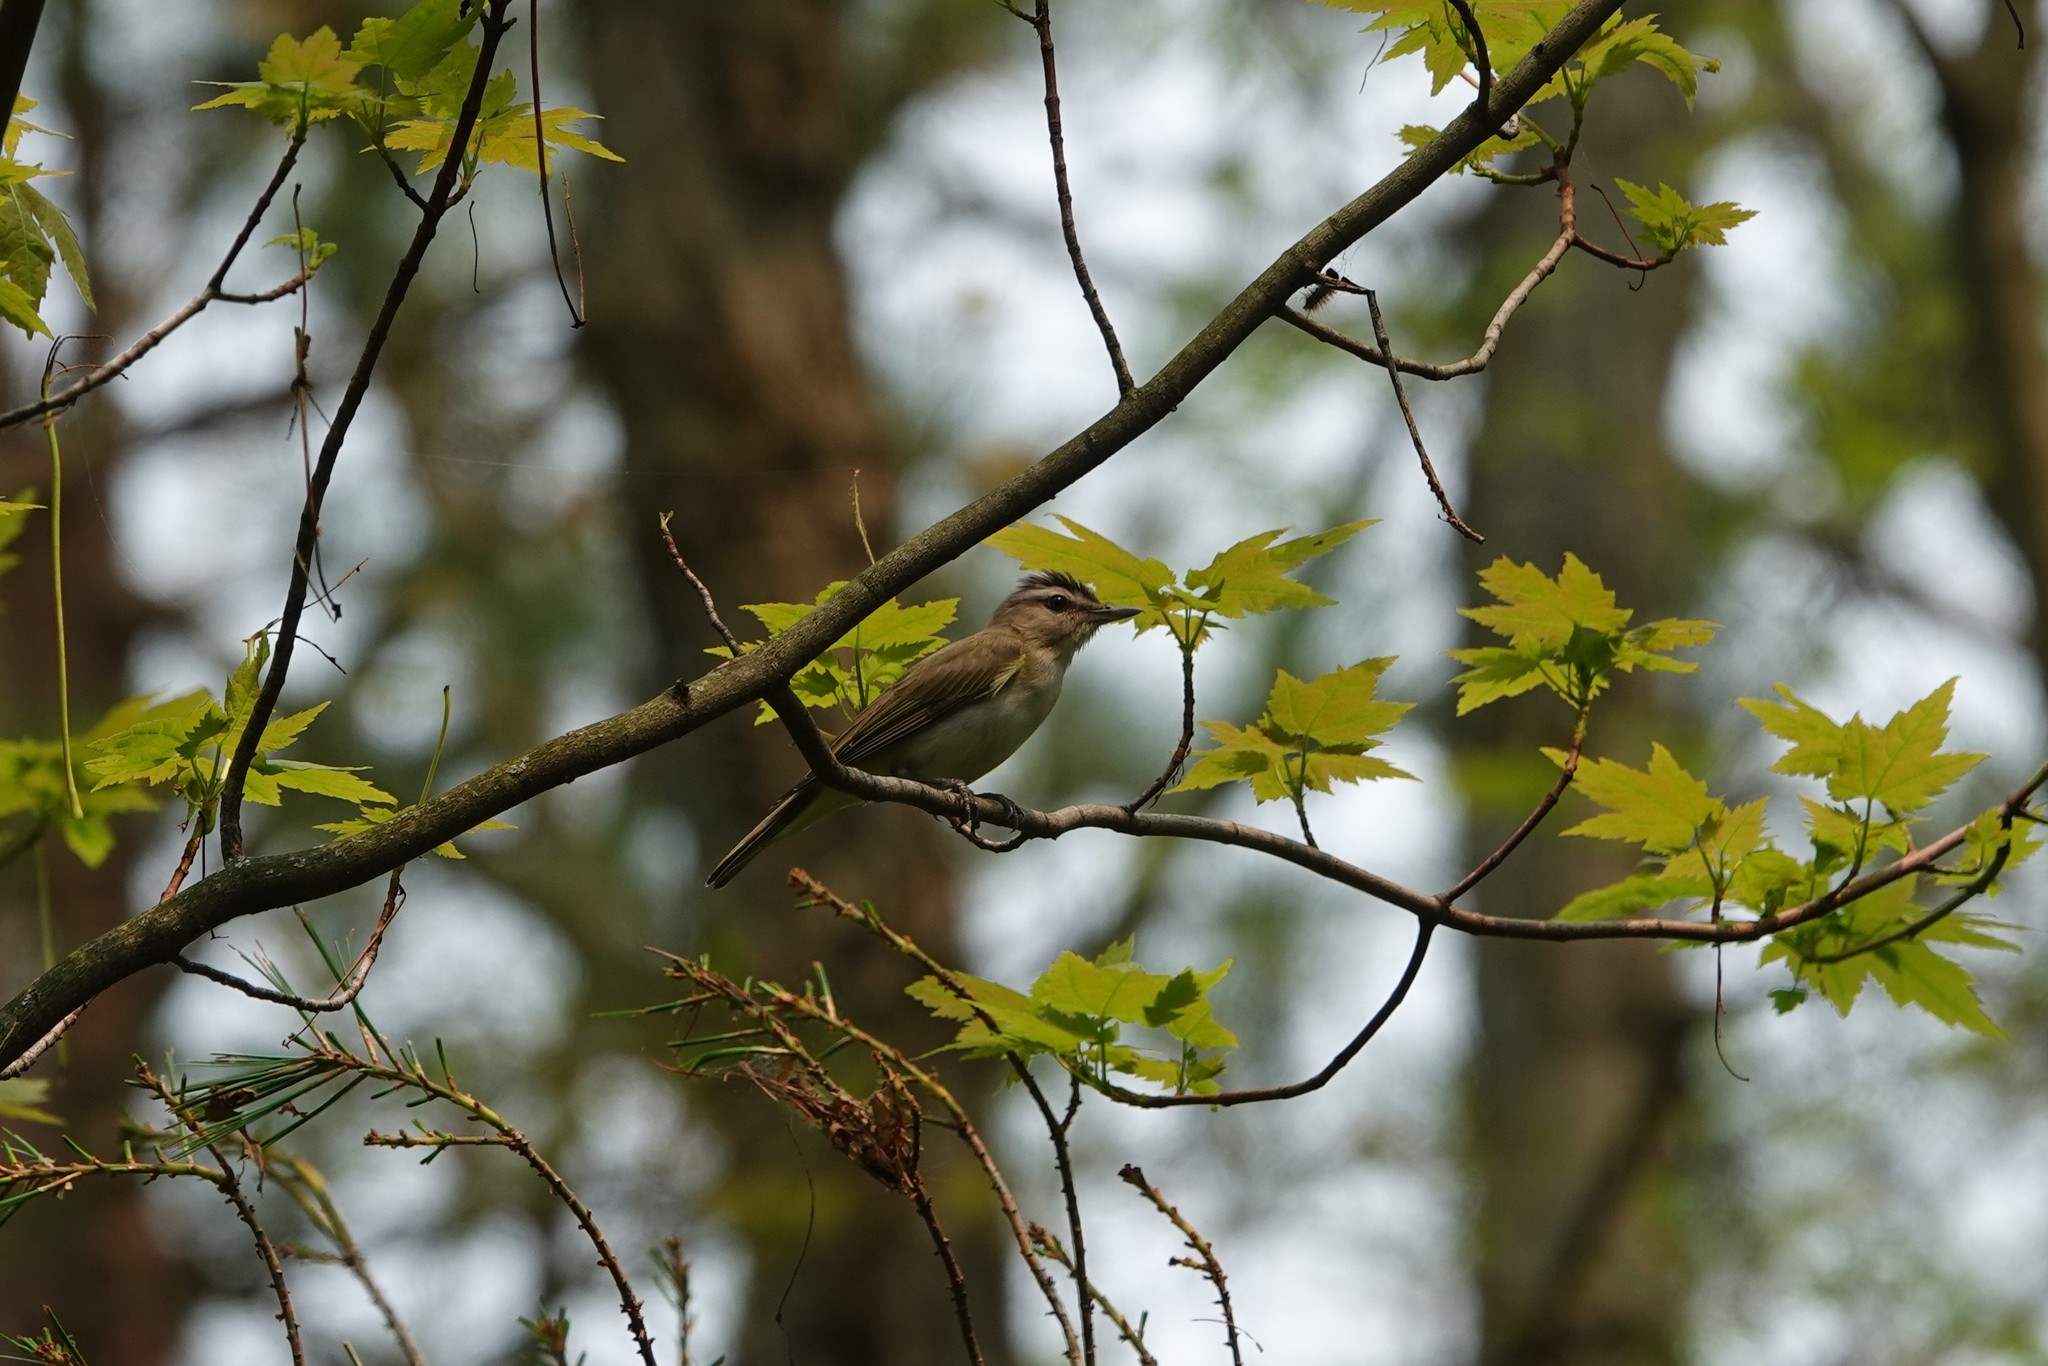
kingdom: Animalia
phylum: Chordata
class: Aves
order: Passeriformes
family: Vireonidae
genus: Vireo
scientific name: Vireo olivaceus
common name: Red-eyed vireo
